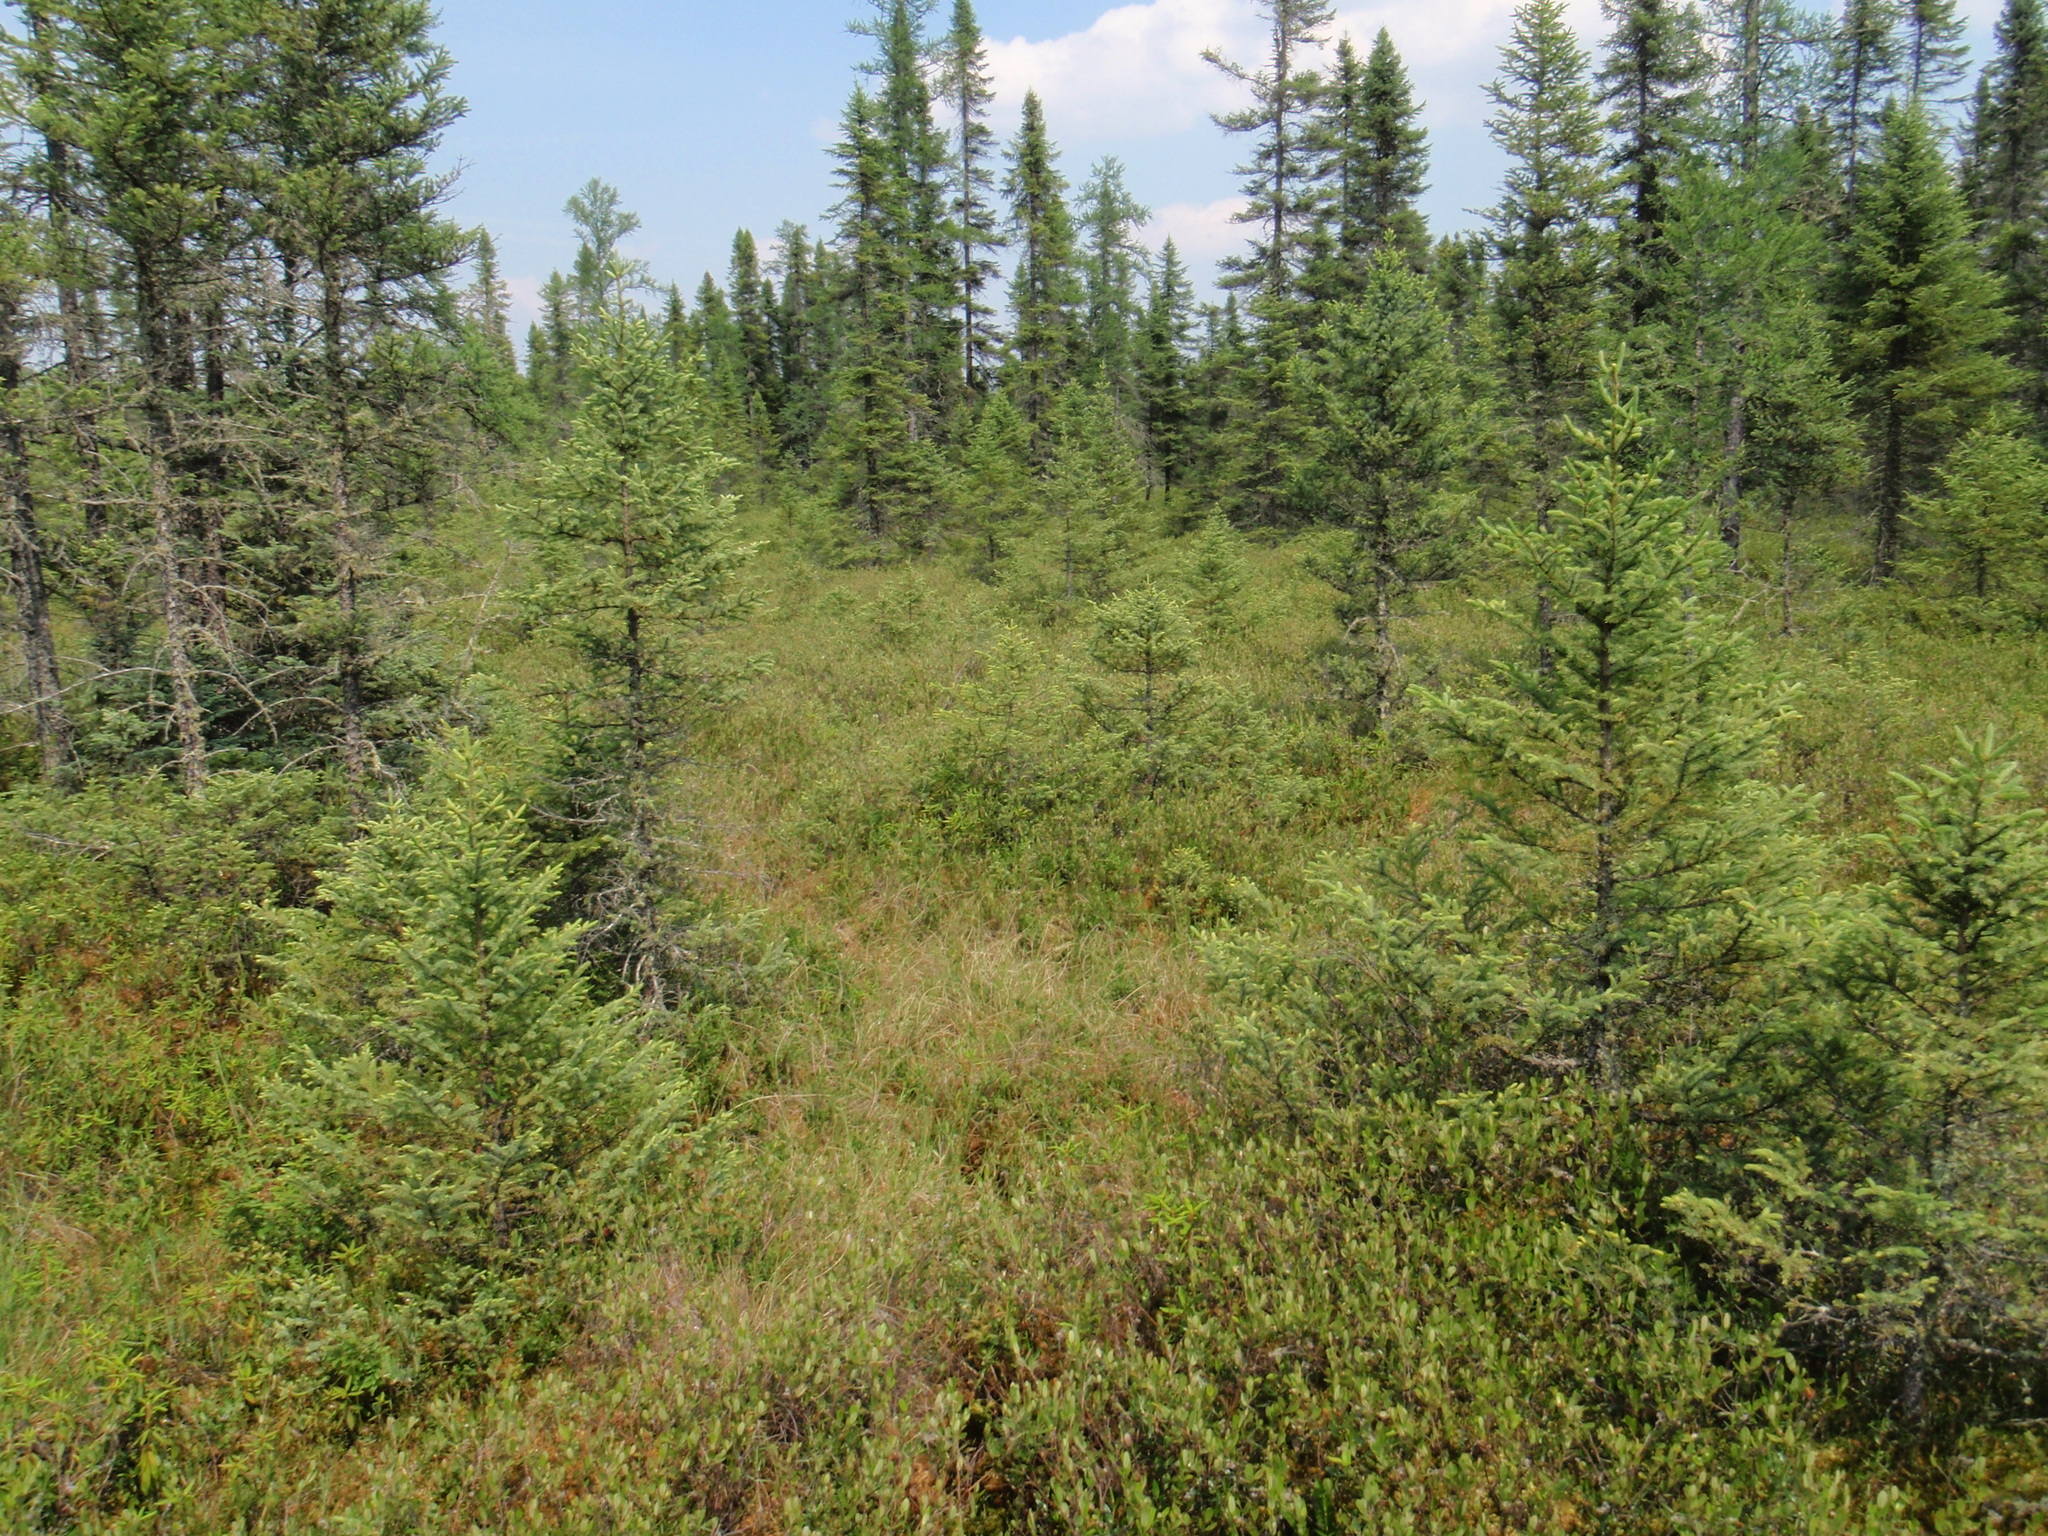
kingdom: Plantae
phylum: Tracheophyta
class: Pinopsida
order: Pinales
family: Pinaceae
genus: Picea
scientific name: Picea mariana
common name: Black spruce
